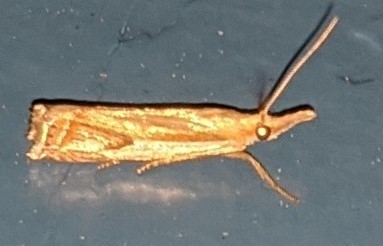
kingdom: Animalia
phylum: Arthropoda
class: Insecta
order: Lepidoptera
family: Crambidae
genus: Crambus
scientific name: Crambus agitatellus
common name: Double-banded grass-veneer
